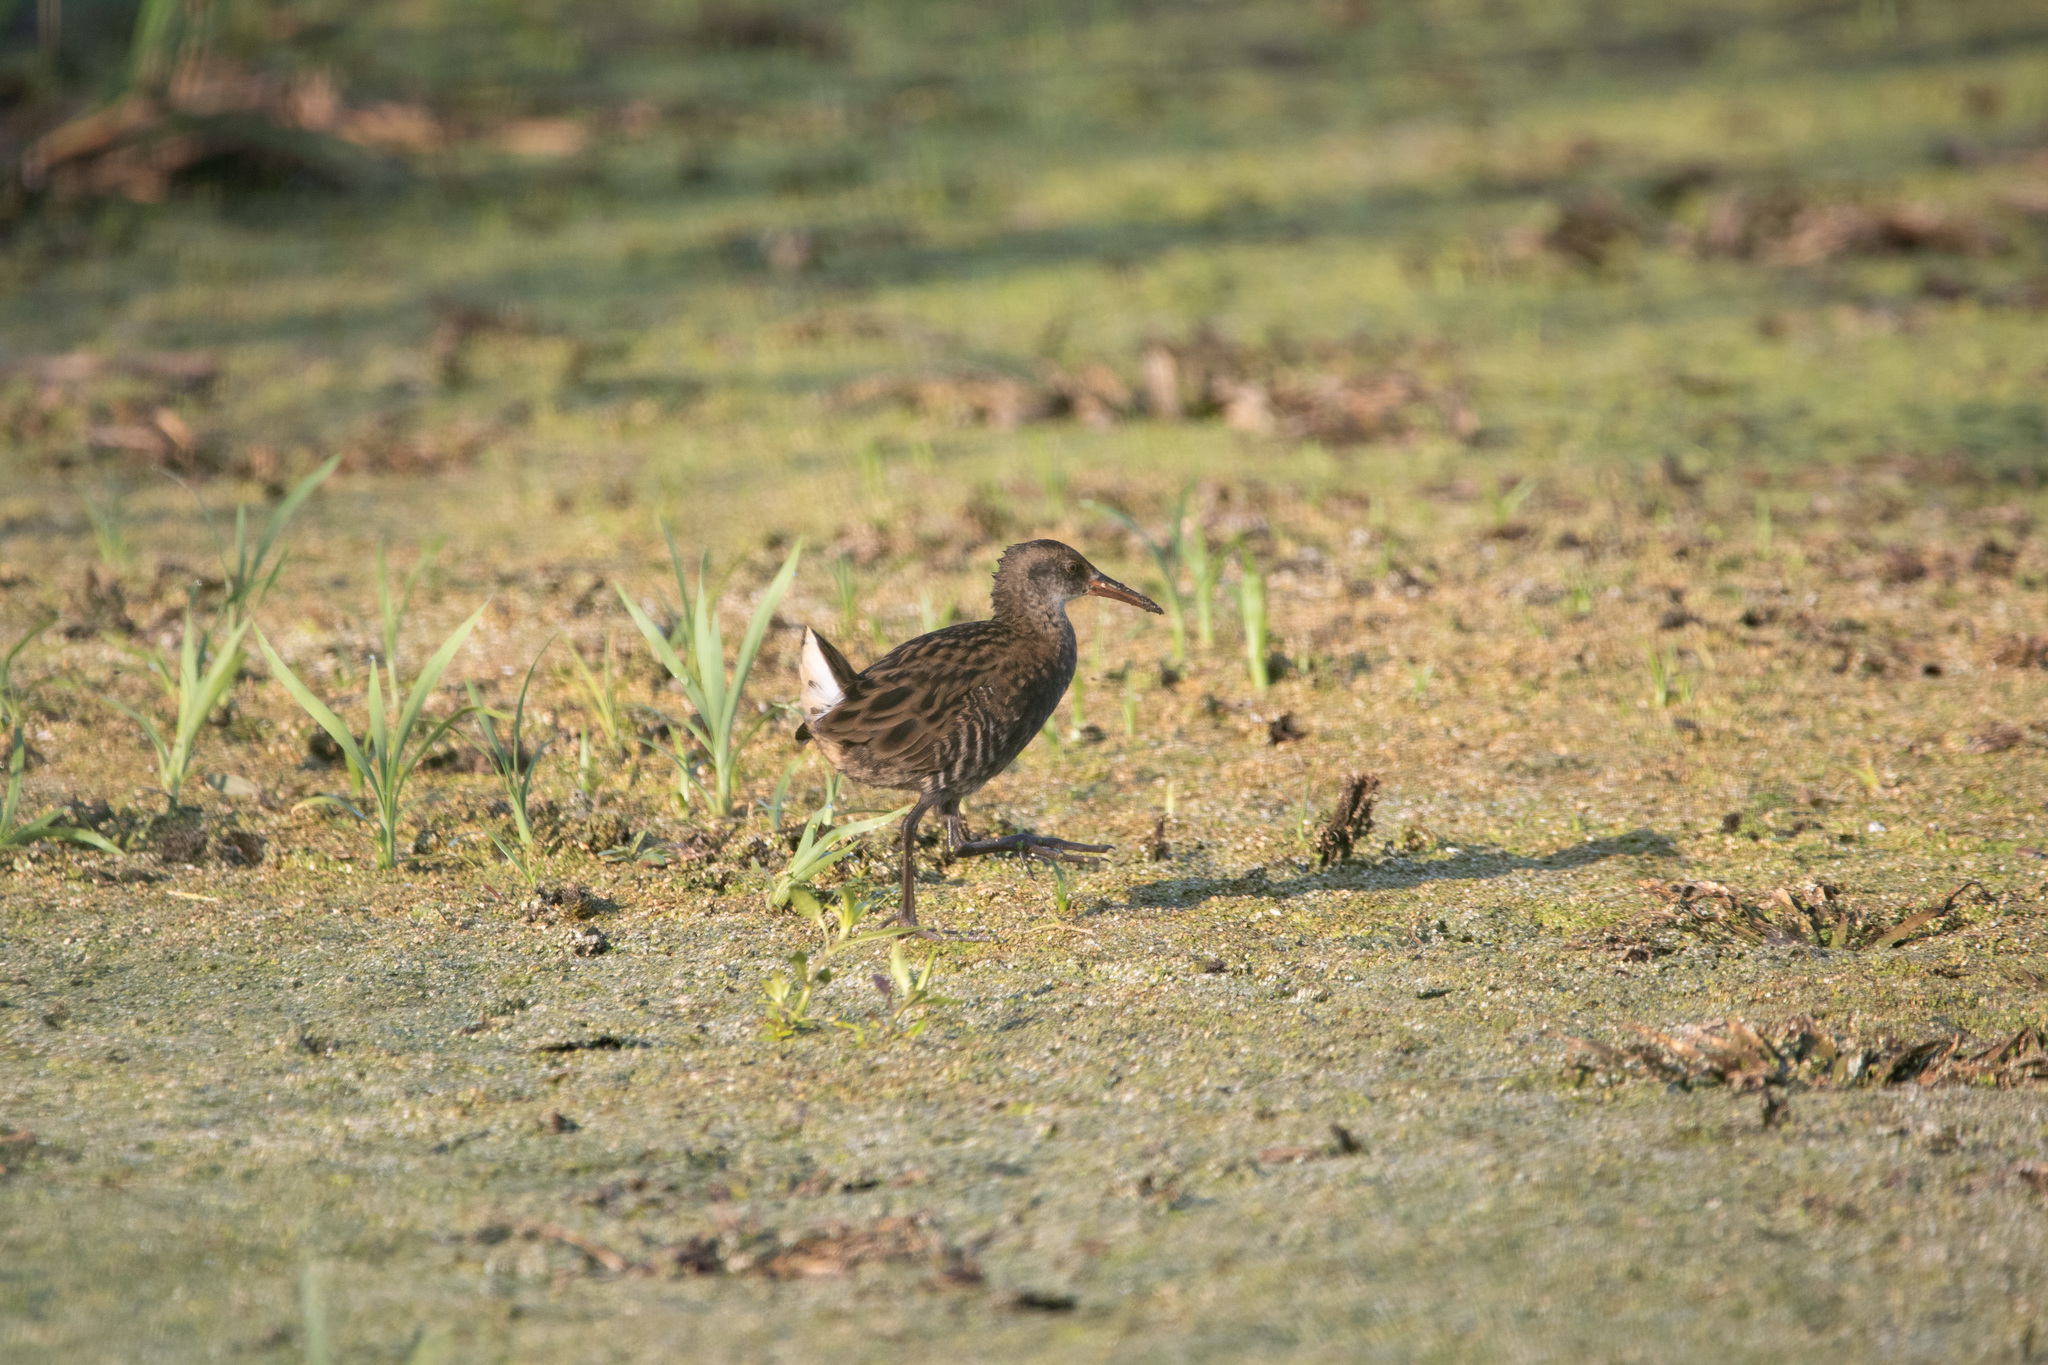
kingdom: Animalia
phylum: Chordata
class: Aves
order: Gruiformes
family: Rallidae
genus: Rallus
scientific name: Rallus aquaticus
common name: Water rail
